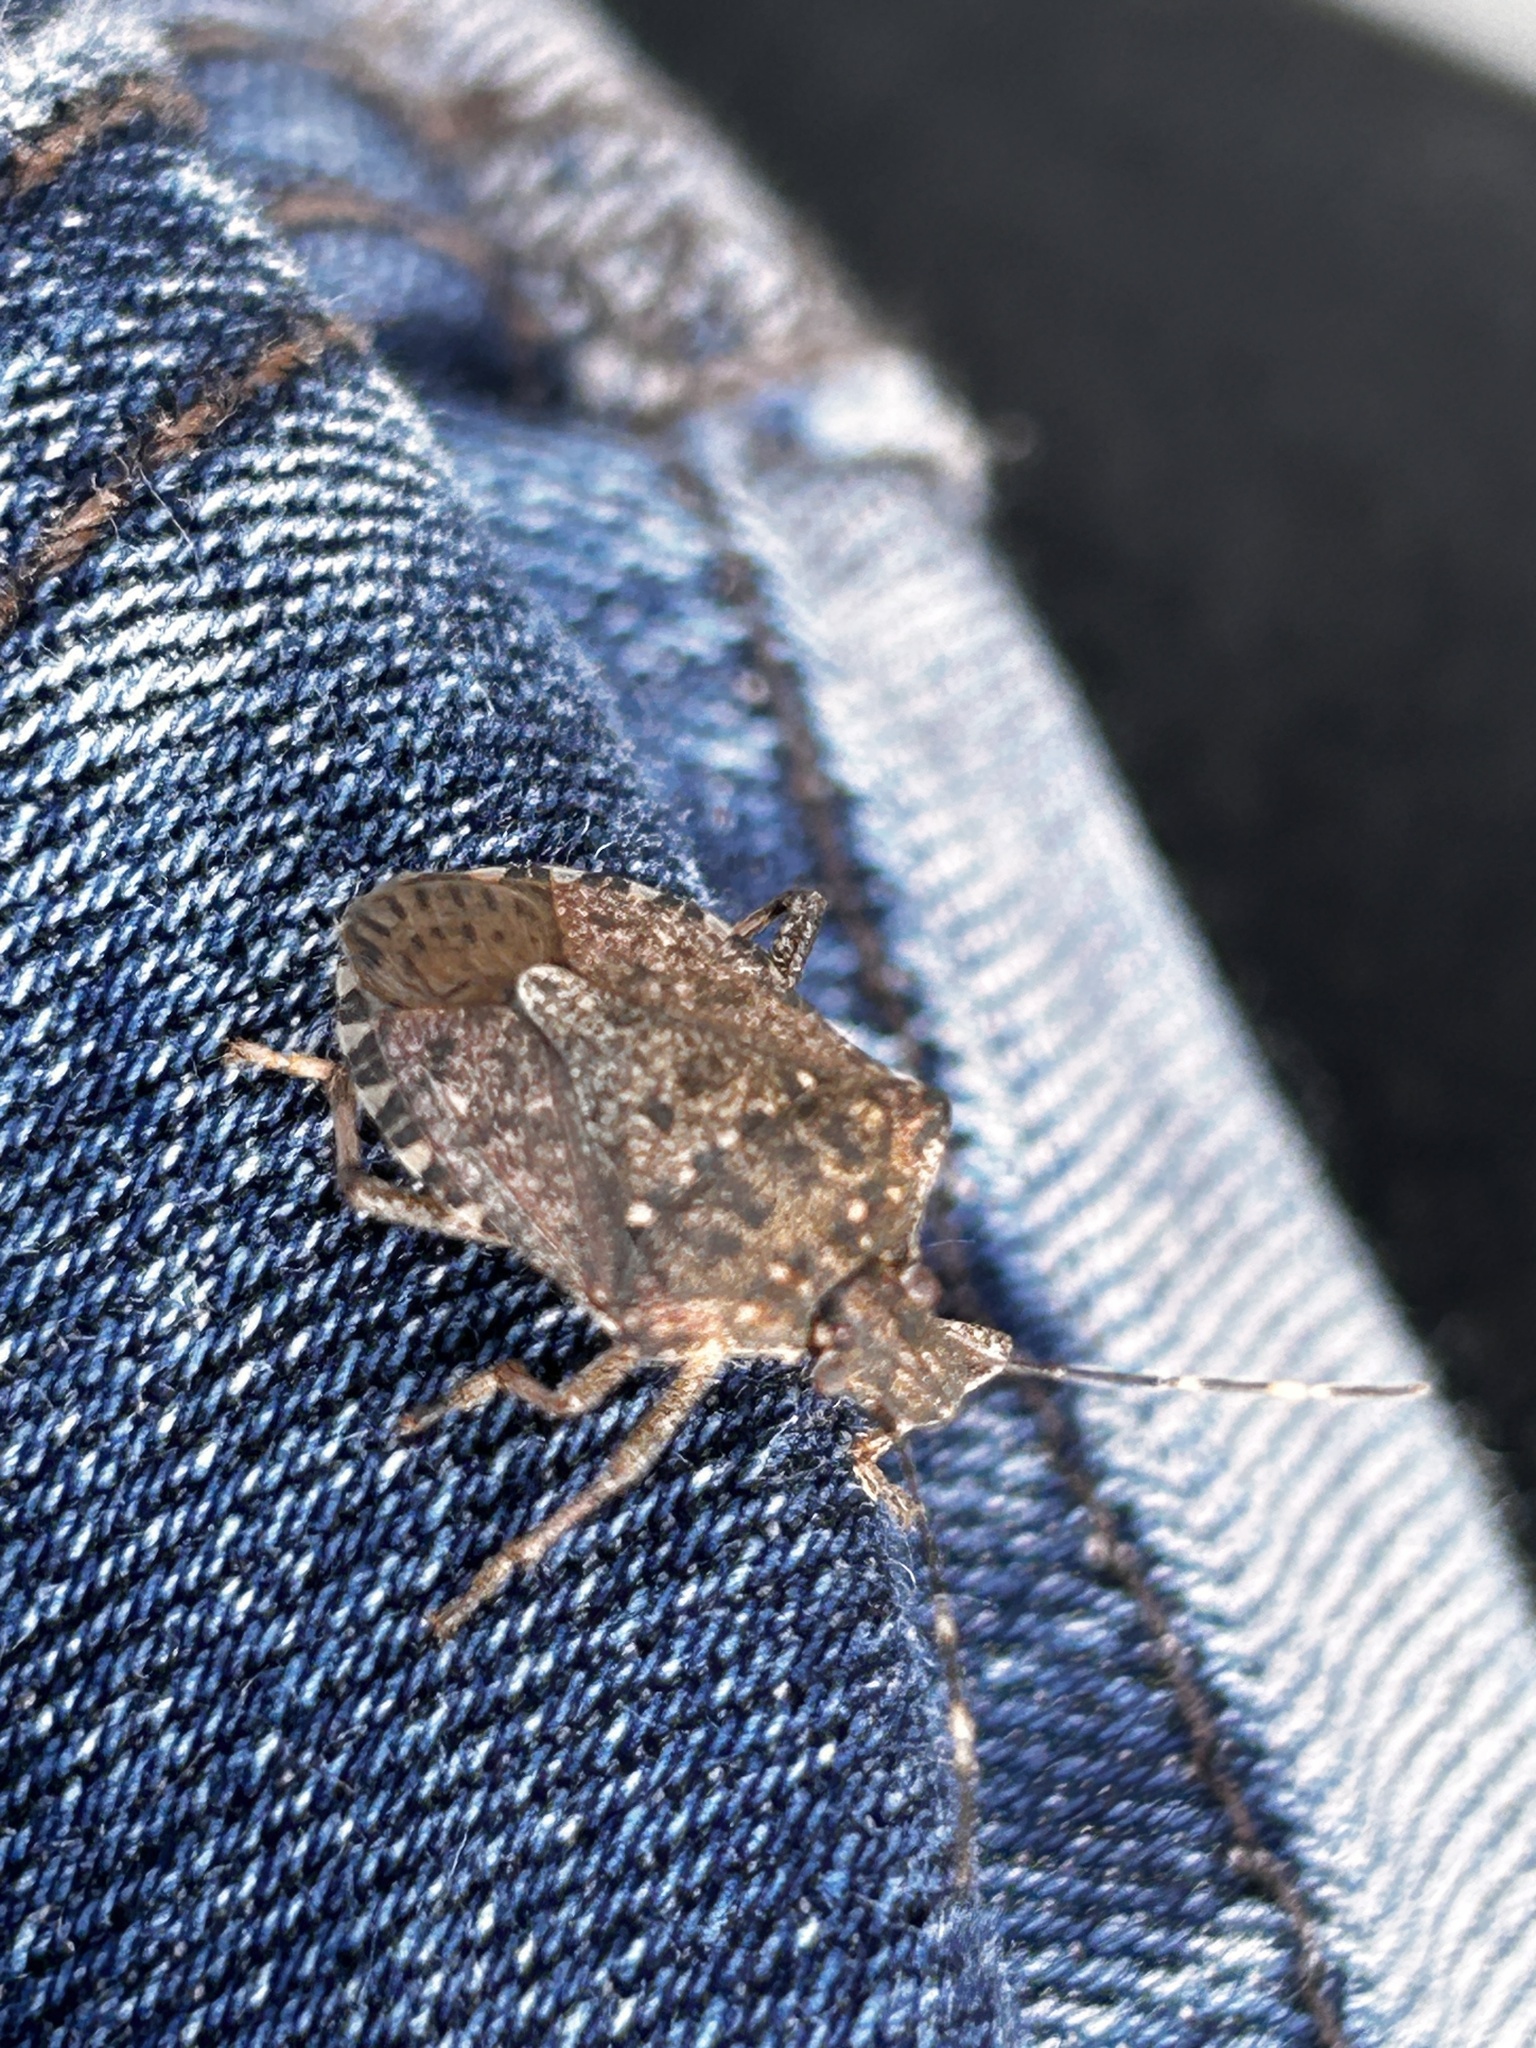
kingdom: Animalia
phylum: Arthropoda
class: Insecta
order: Hemiptera
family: Pentatomidae
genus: Halyomorpha
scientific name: Halyomorpha halys
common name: Brown marmorated stink bug
